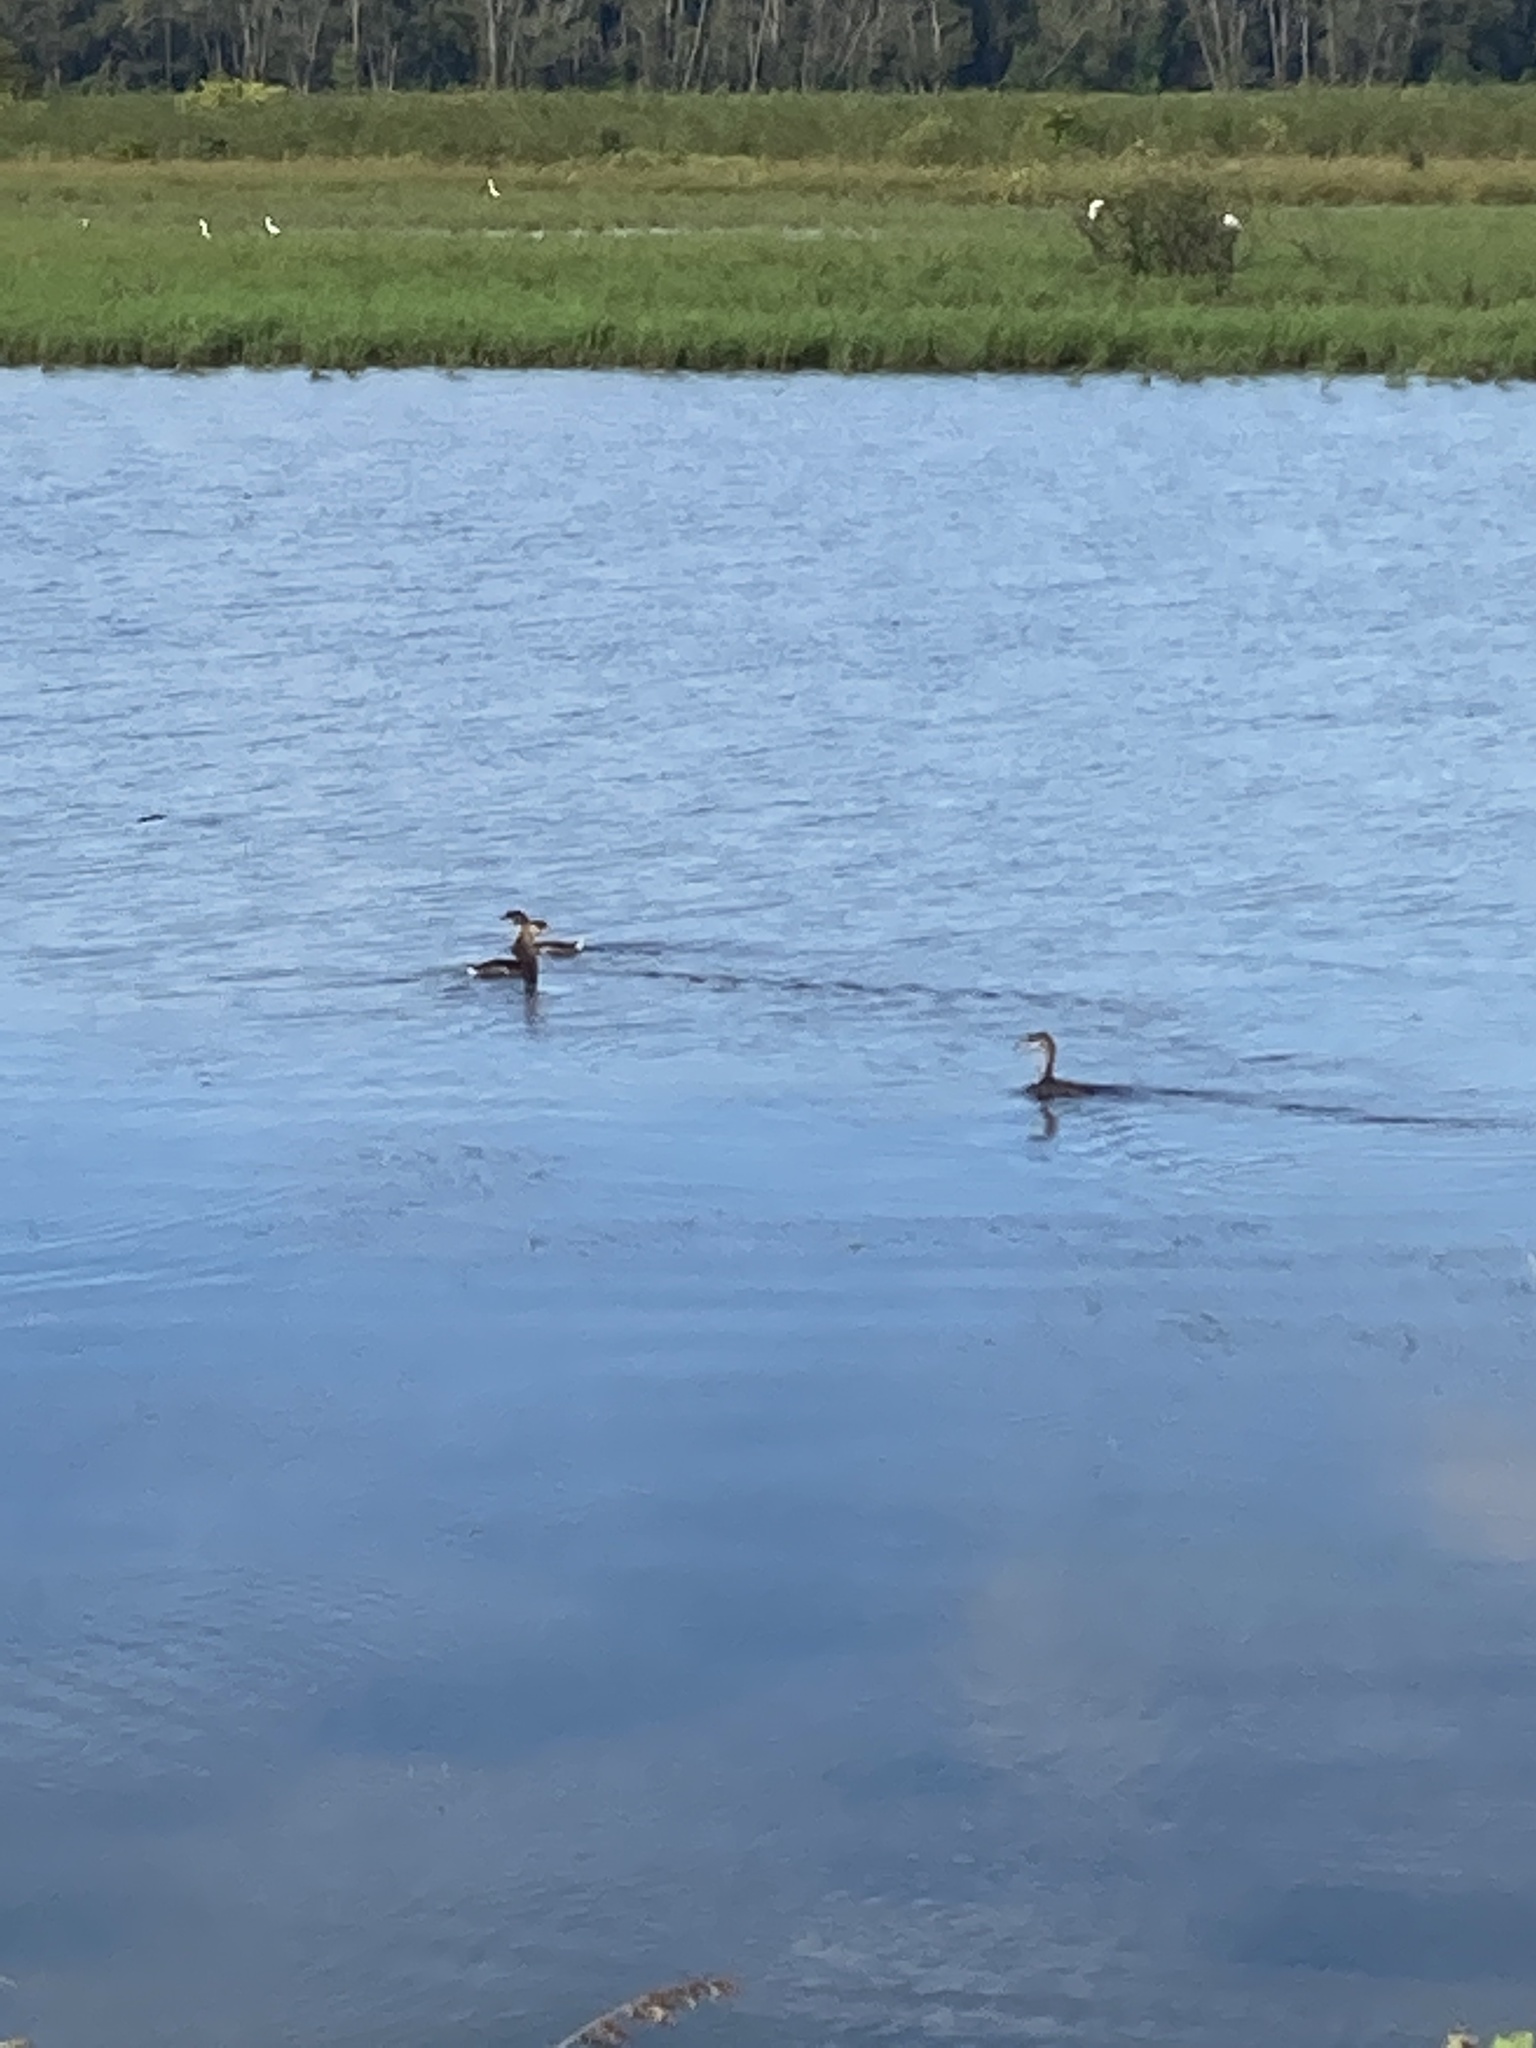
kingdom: Animalia
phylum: Chordata
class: Aves
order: Podicipediformes
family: Podicipedidae
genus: Podilymbus
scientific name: Podilymbus podiceps
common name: Pied-billed grebe
